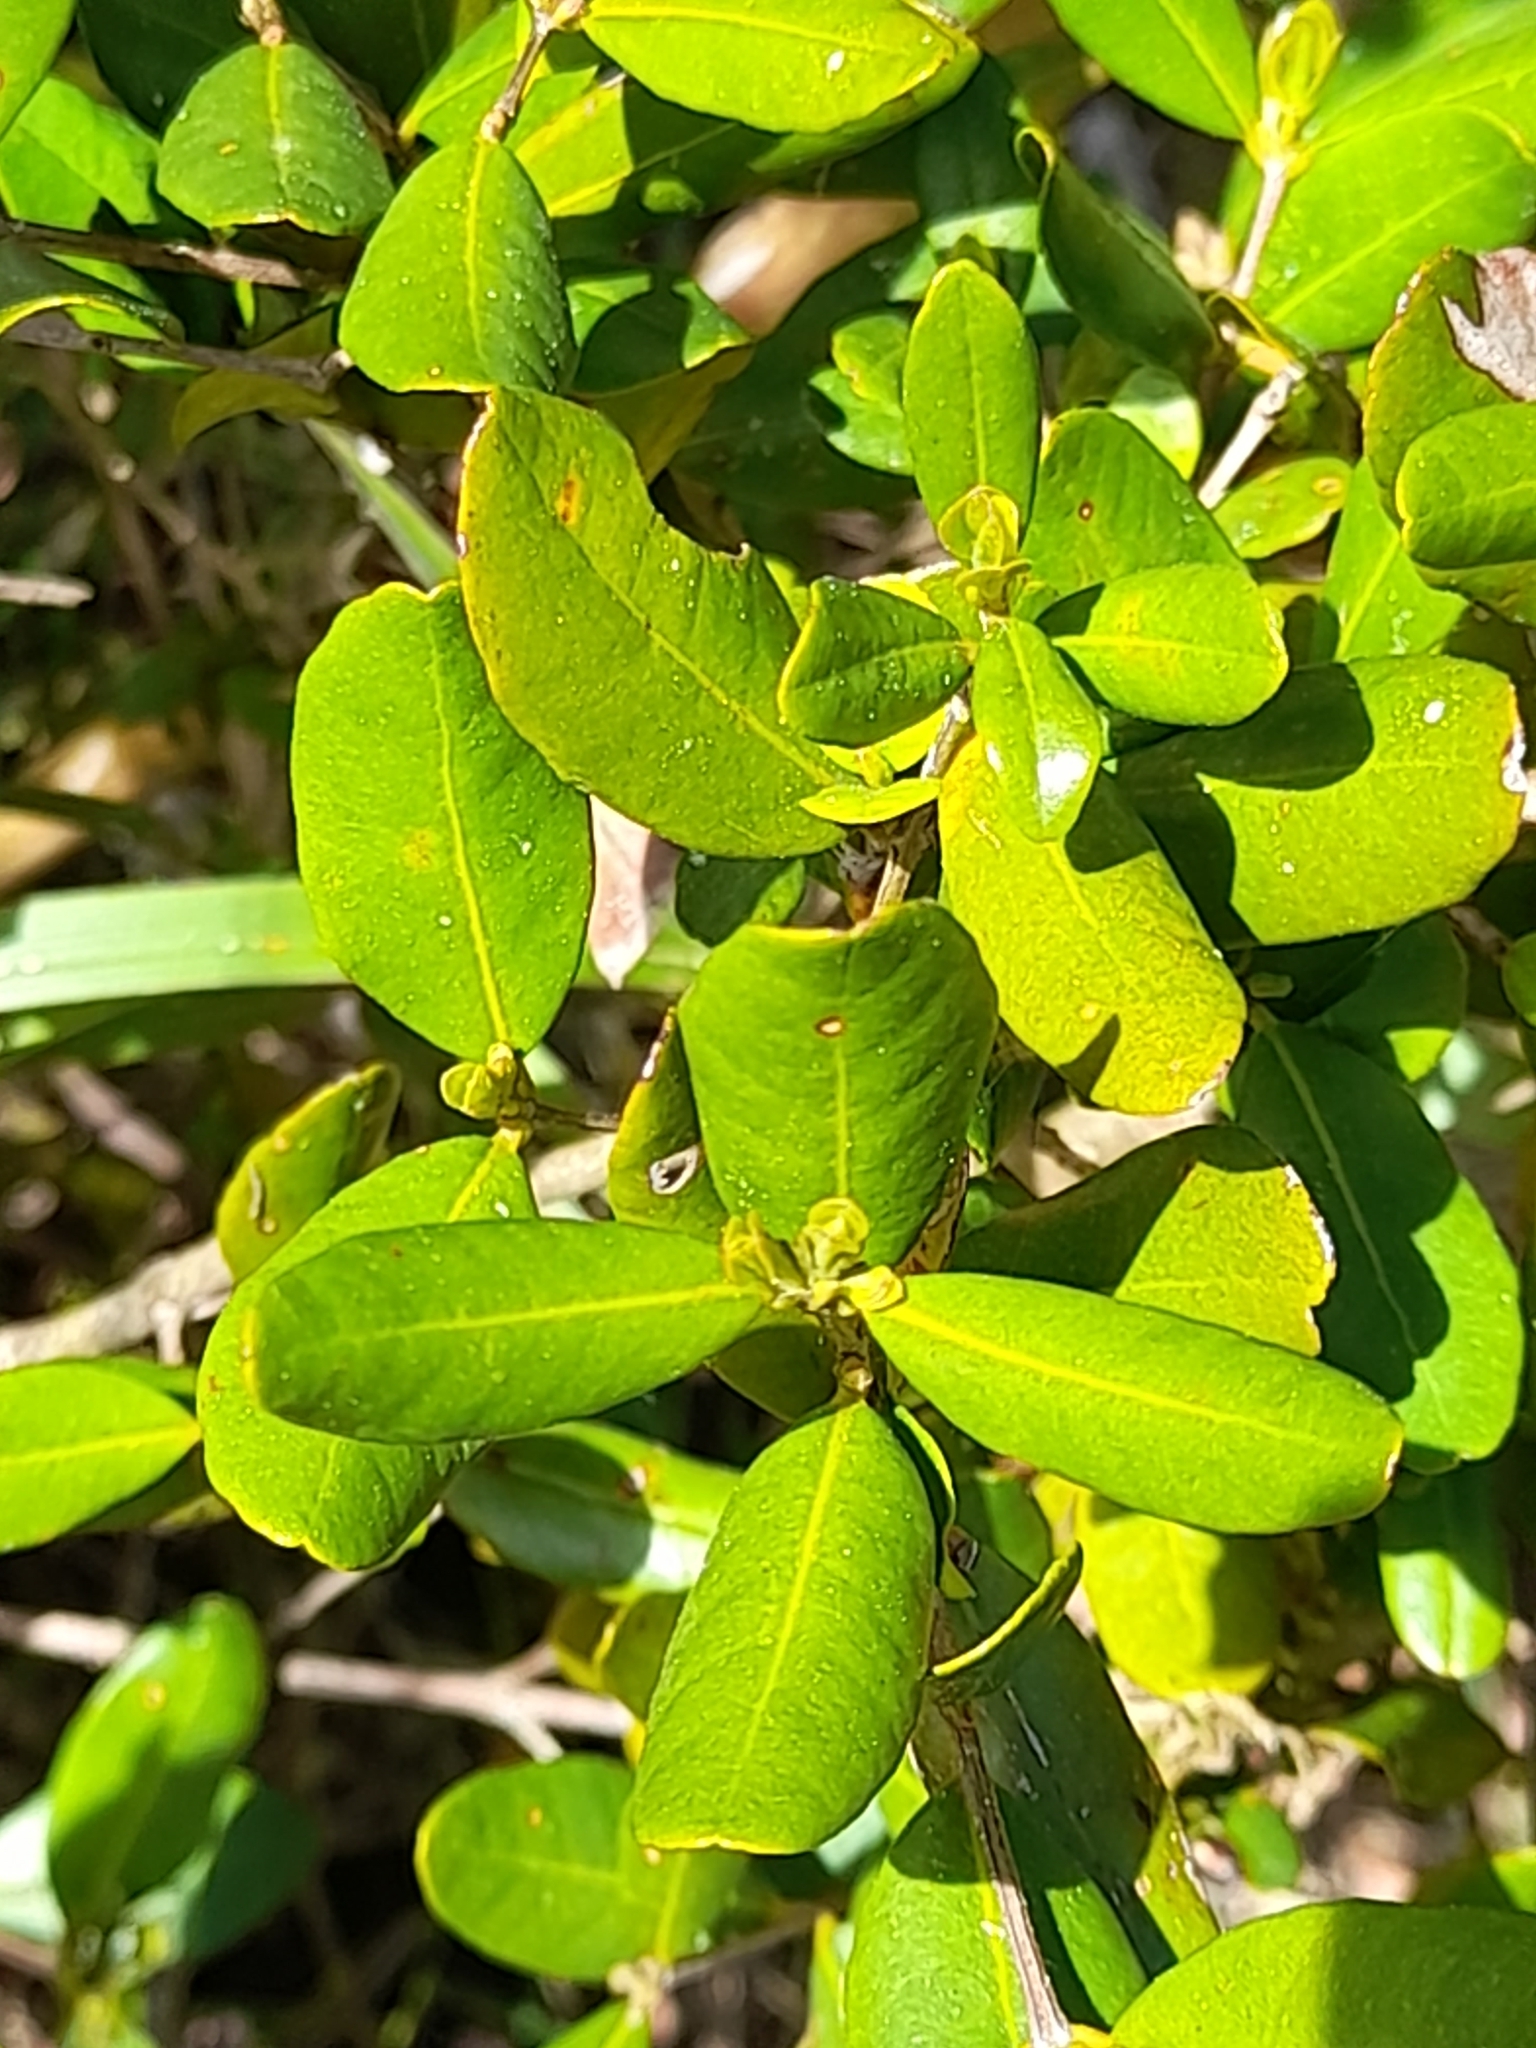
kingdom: Plantae
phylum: Tracheophyta
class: Magnoliopsida
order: Myrtales
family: Myrtaceae
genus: Myrceugenia
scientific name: Myrceugenia exsucca
